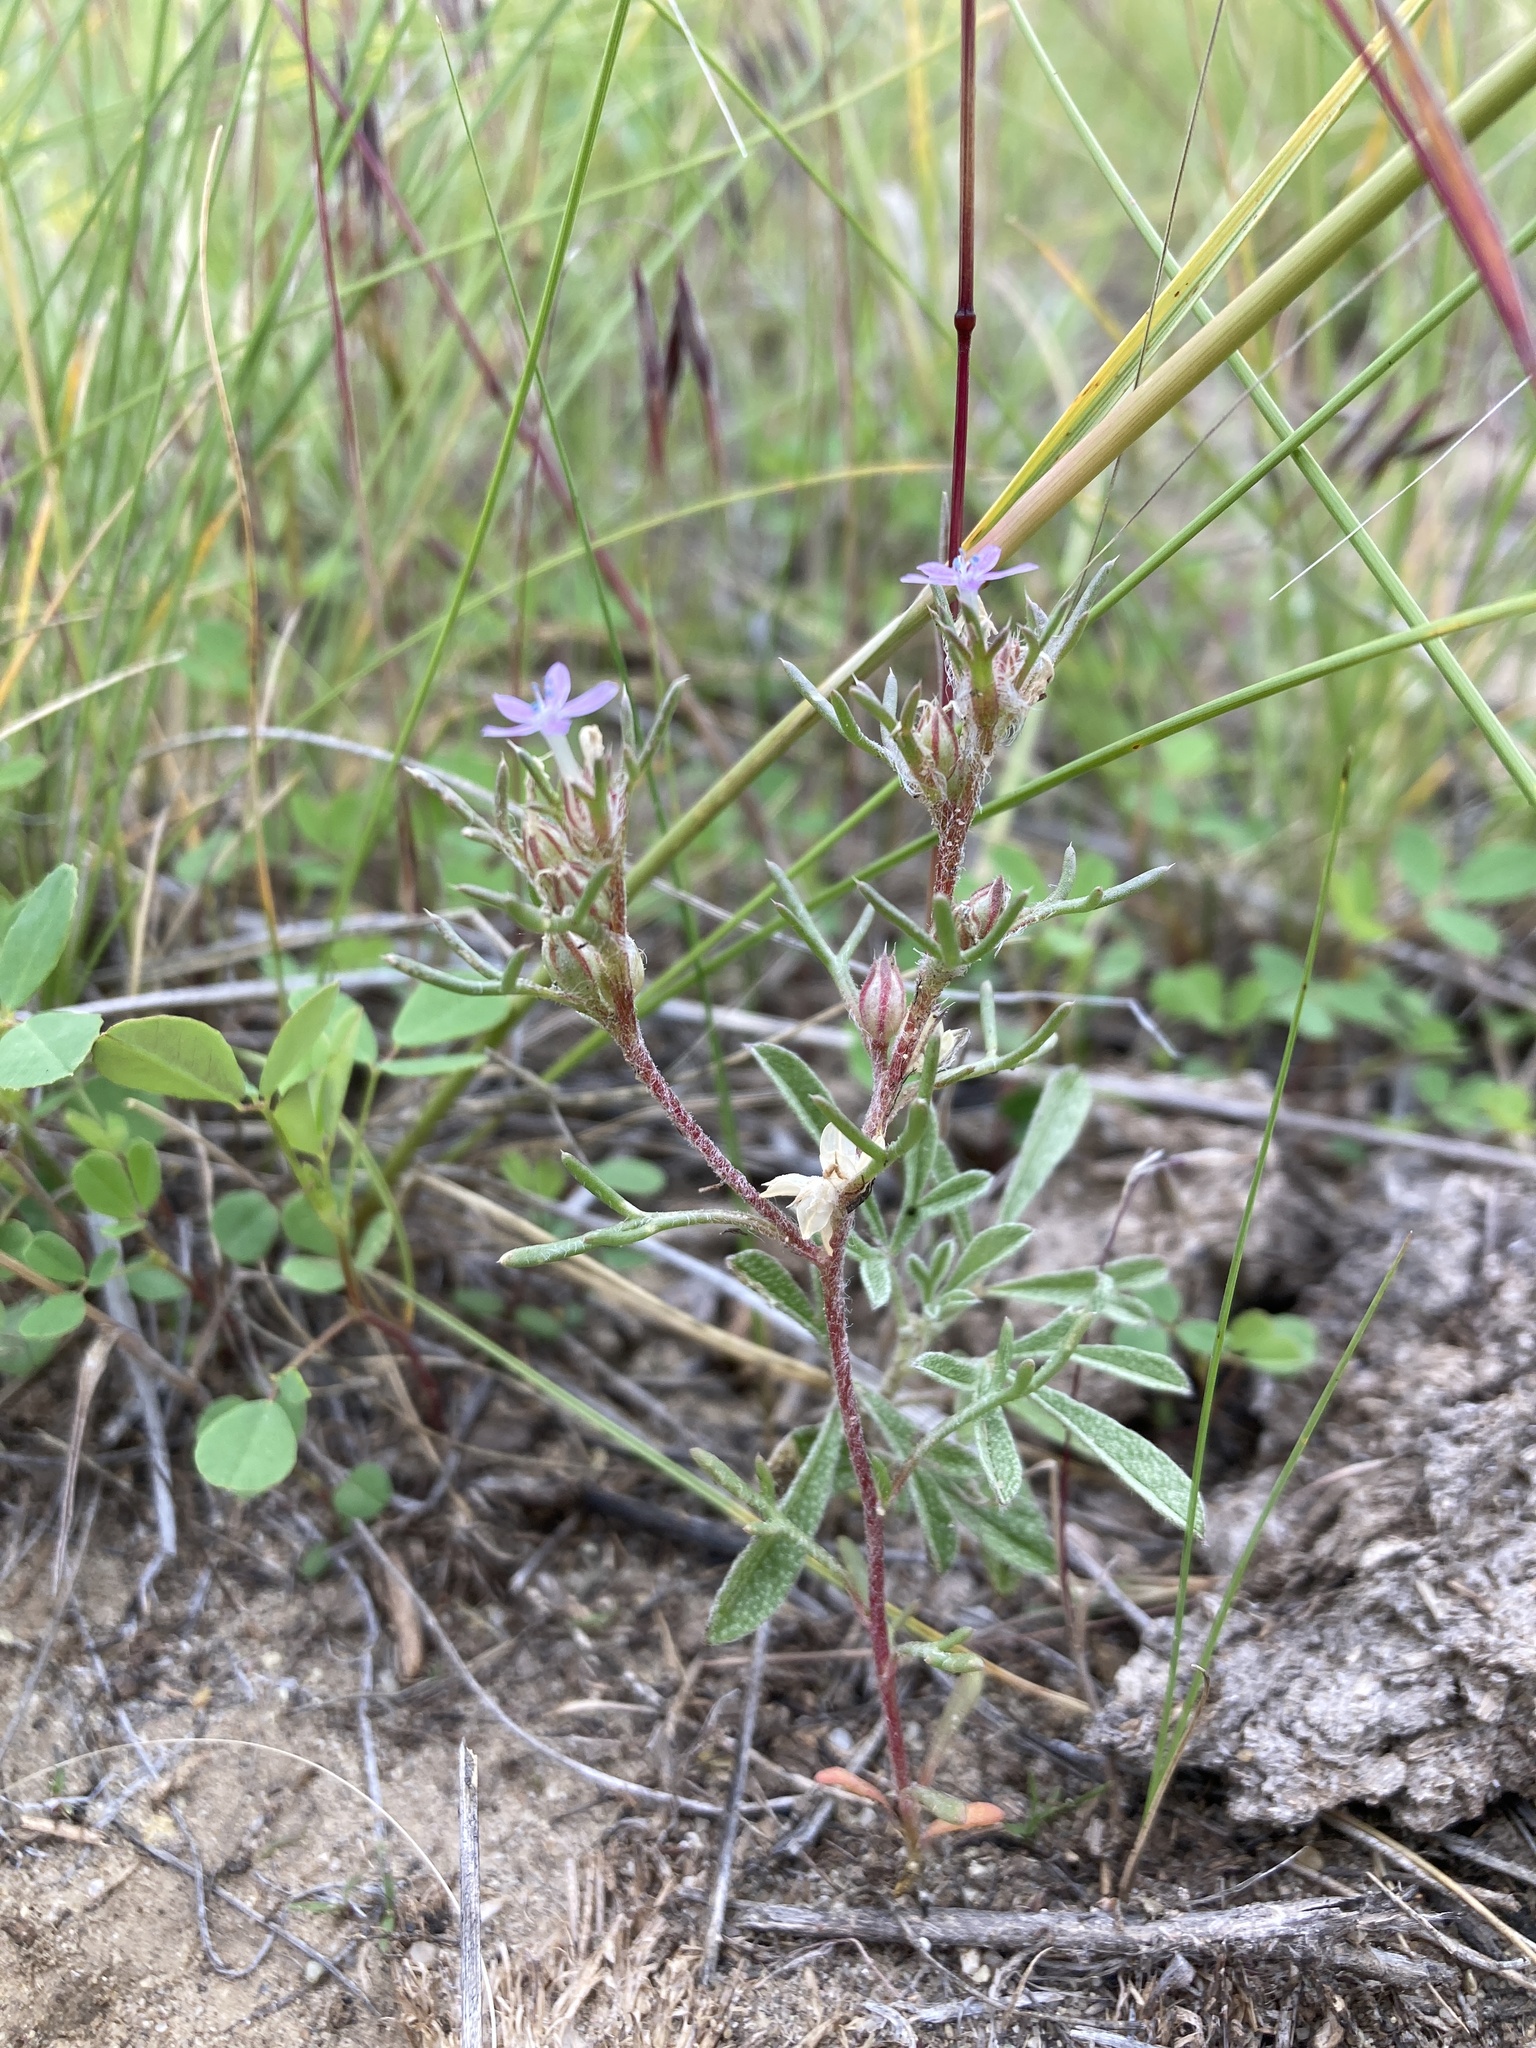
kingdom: Plantae
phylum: Tracheophyta
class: Magnoliopsida
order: Ericales
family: Polemoniaceae
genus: Ipomopsis
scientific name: Ipomopsis pumila
